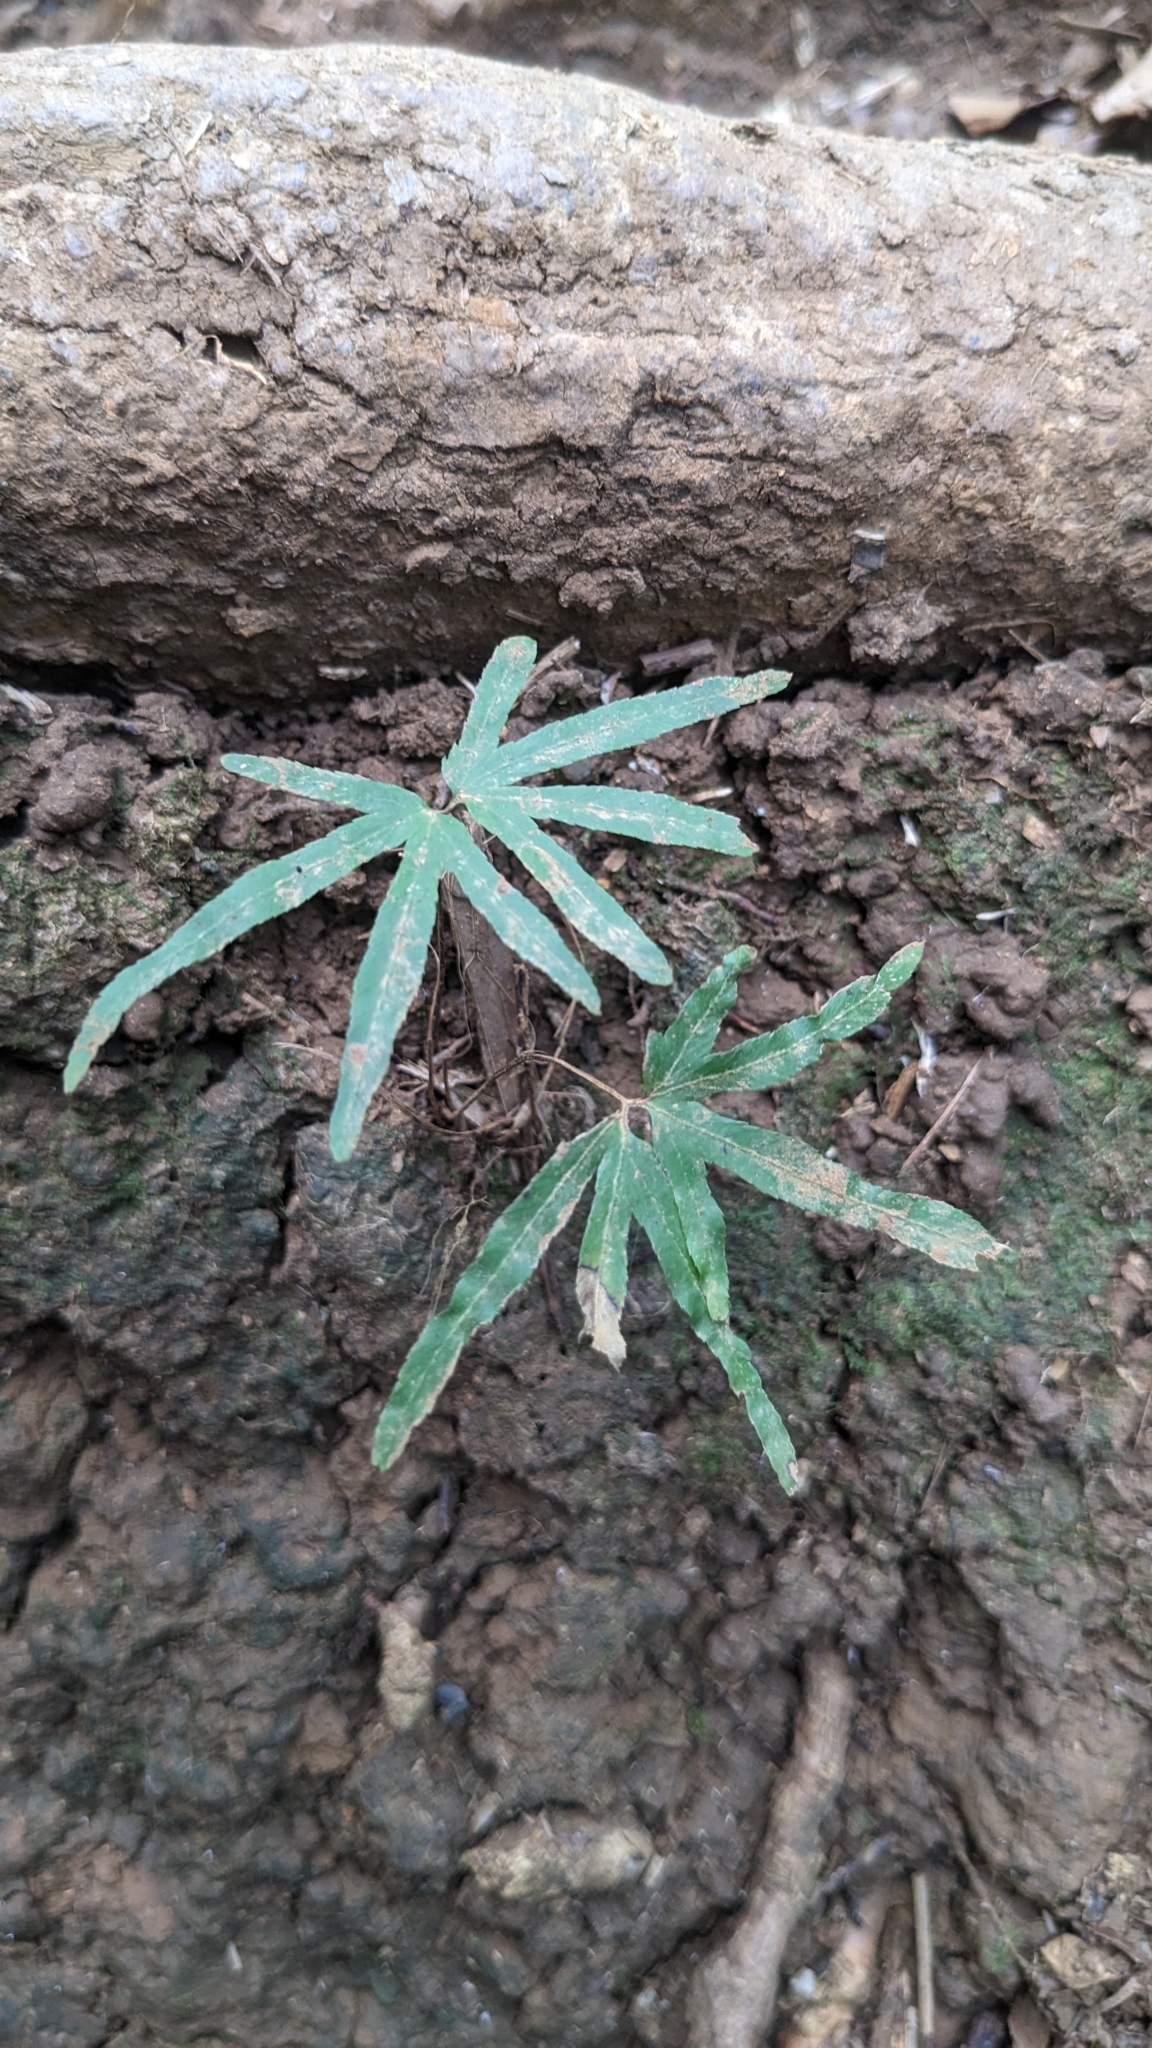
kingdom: Plantae
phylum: Tracheophyta
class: Polypodiopsida
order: Schizaeales
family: Lygodiaceae
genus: Lygodium
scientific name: Lygodium japonicum
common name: Japanese climbing fern
